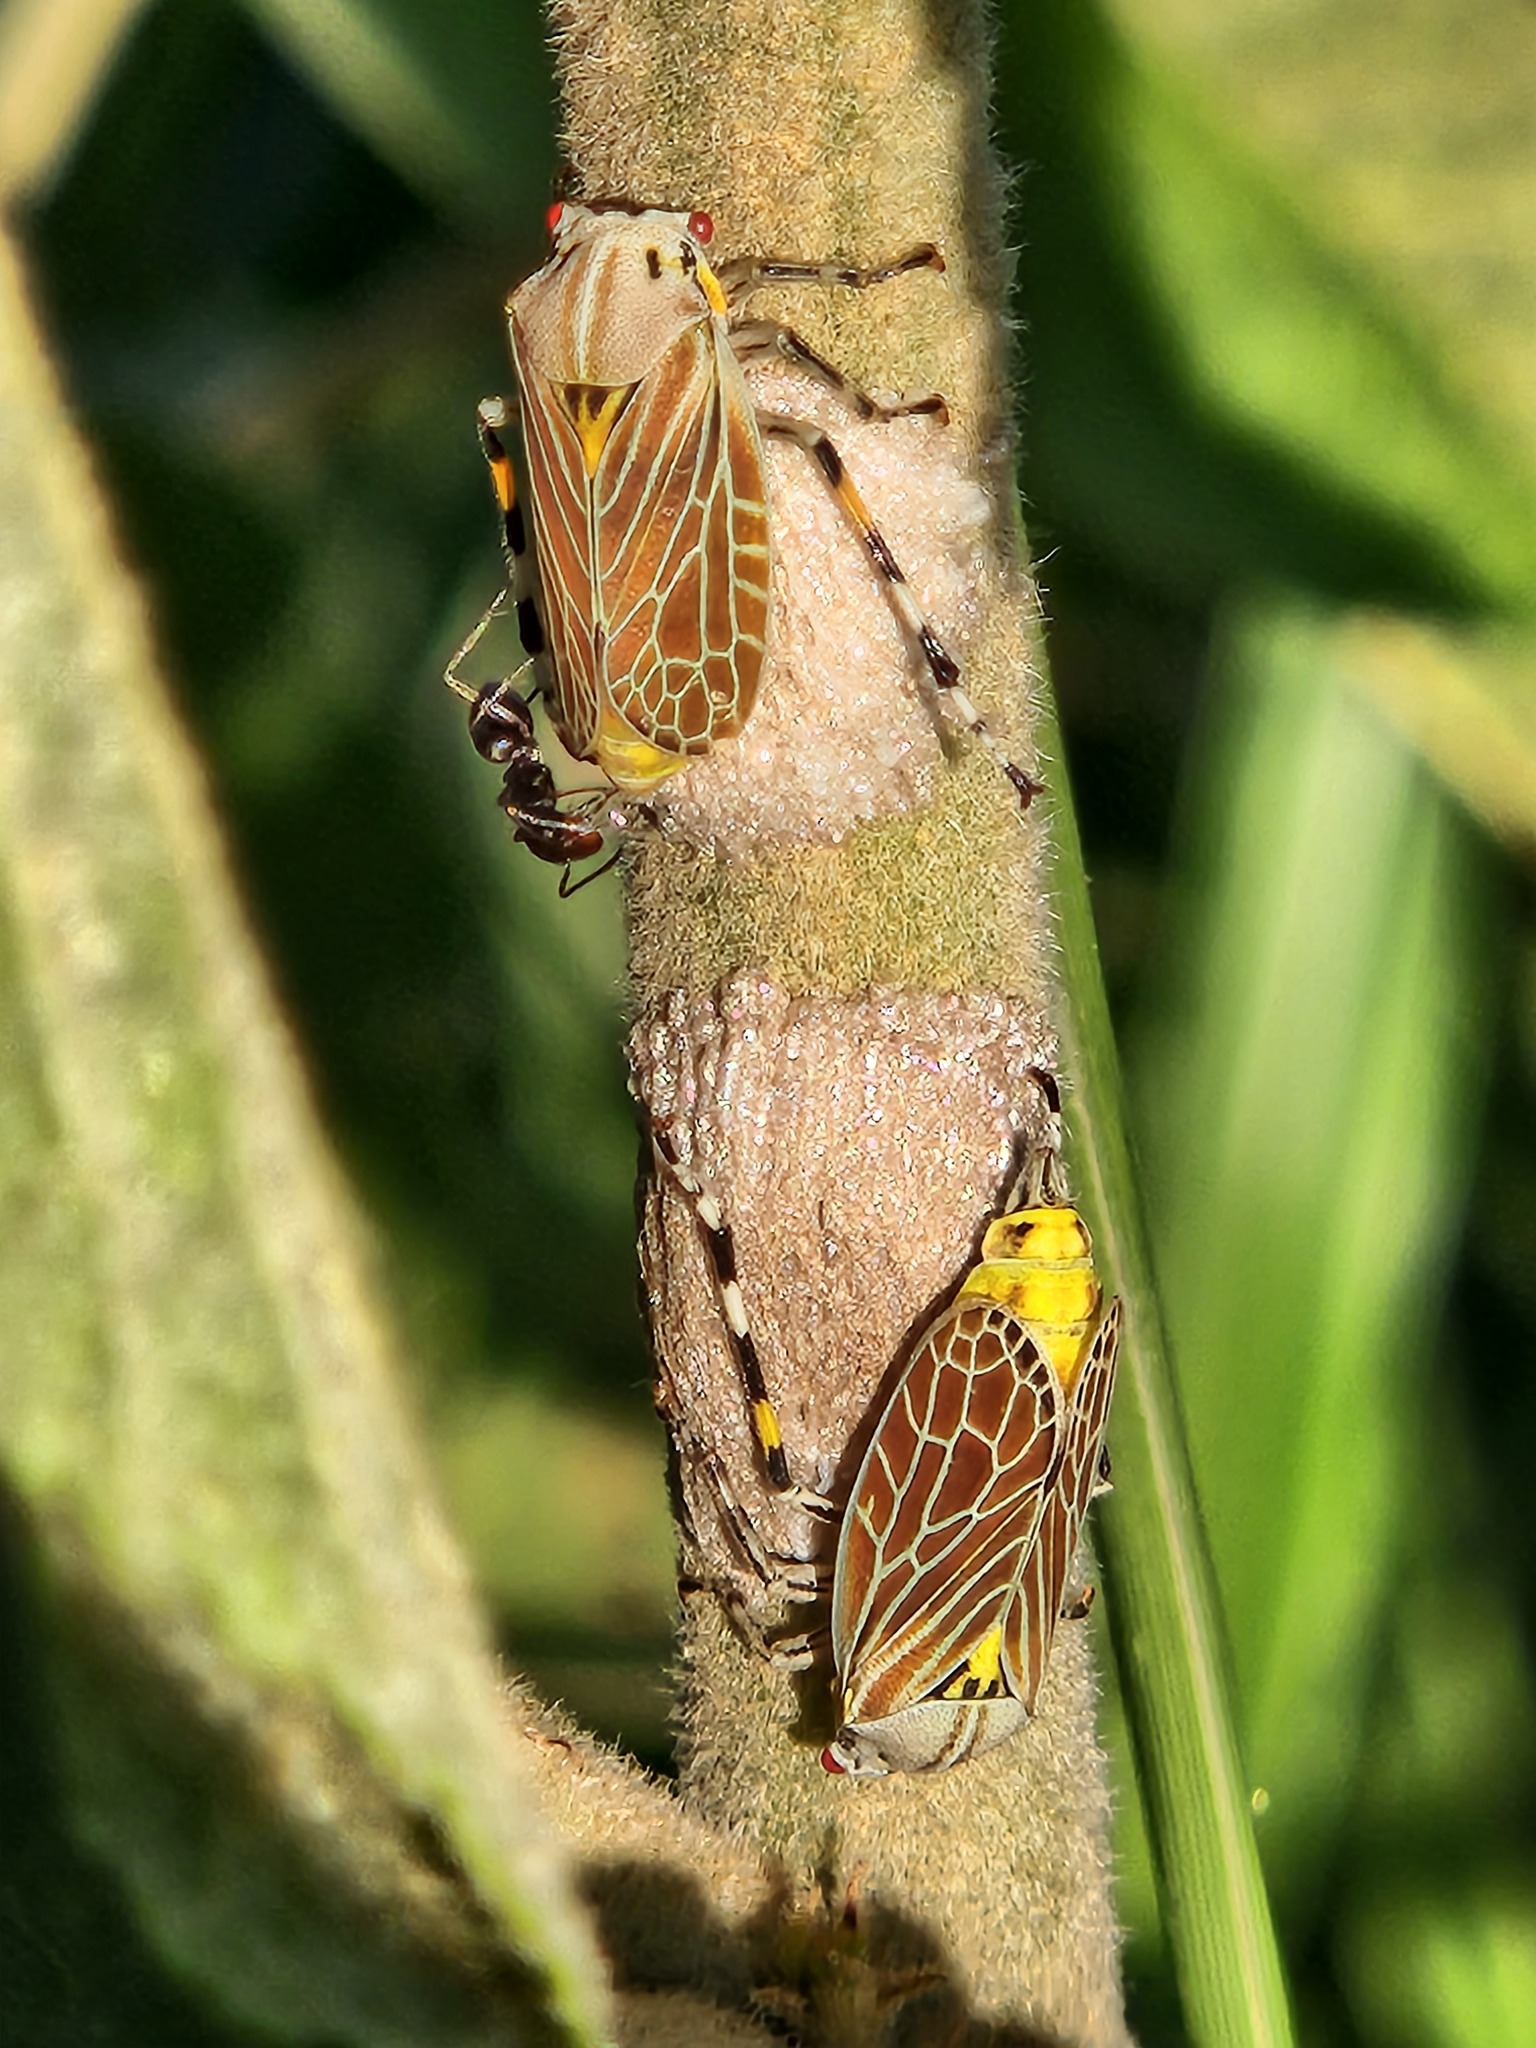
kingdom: Animalia
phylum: Arthropoda
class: Insecta
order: Hemiptera
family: Aetalionidae
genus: Aetalion
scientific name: Aetalion reticulatum
